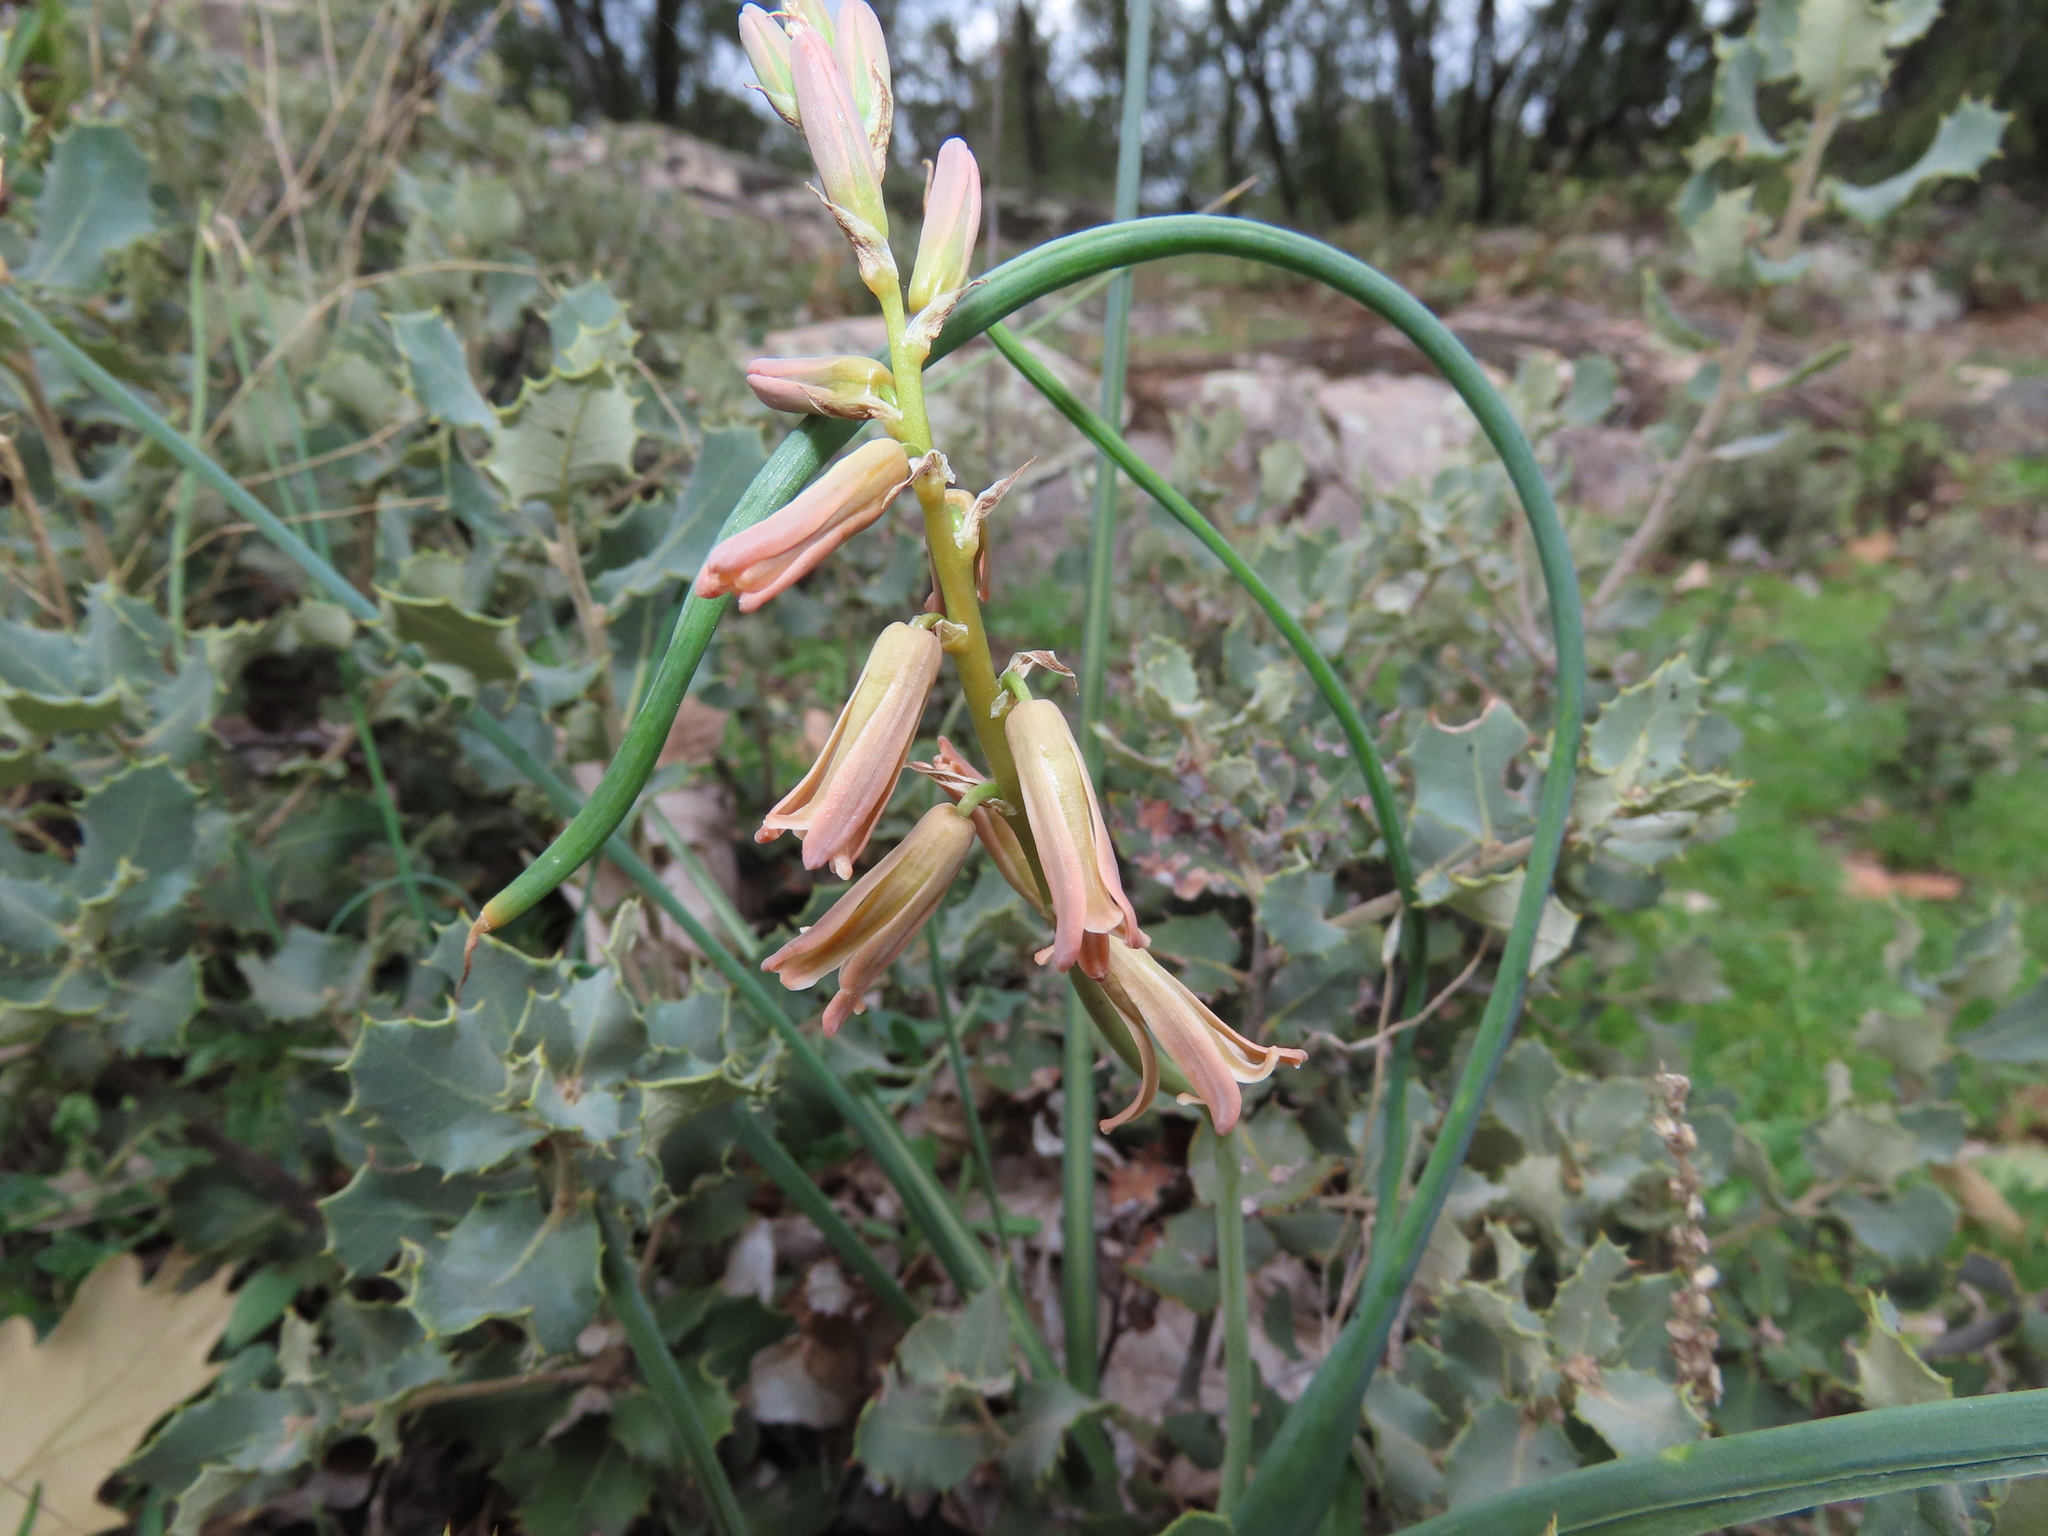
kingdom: Plantae
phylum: Tracheophyta
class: Liliopsida
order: Asparagales
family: Asparagaceae
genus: Dipcadi
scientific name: Dipcadi serotinum
